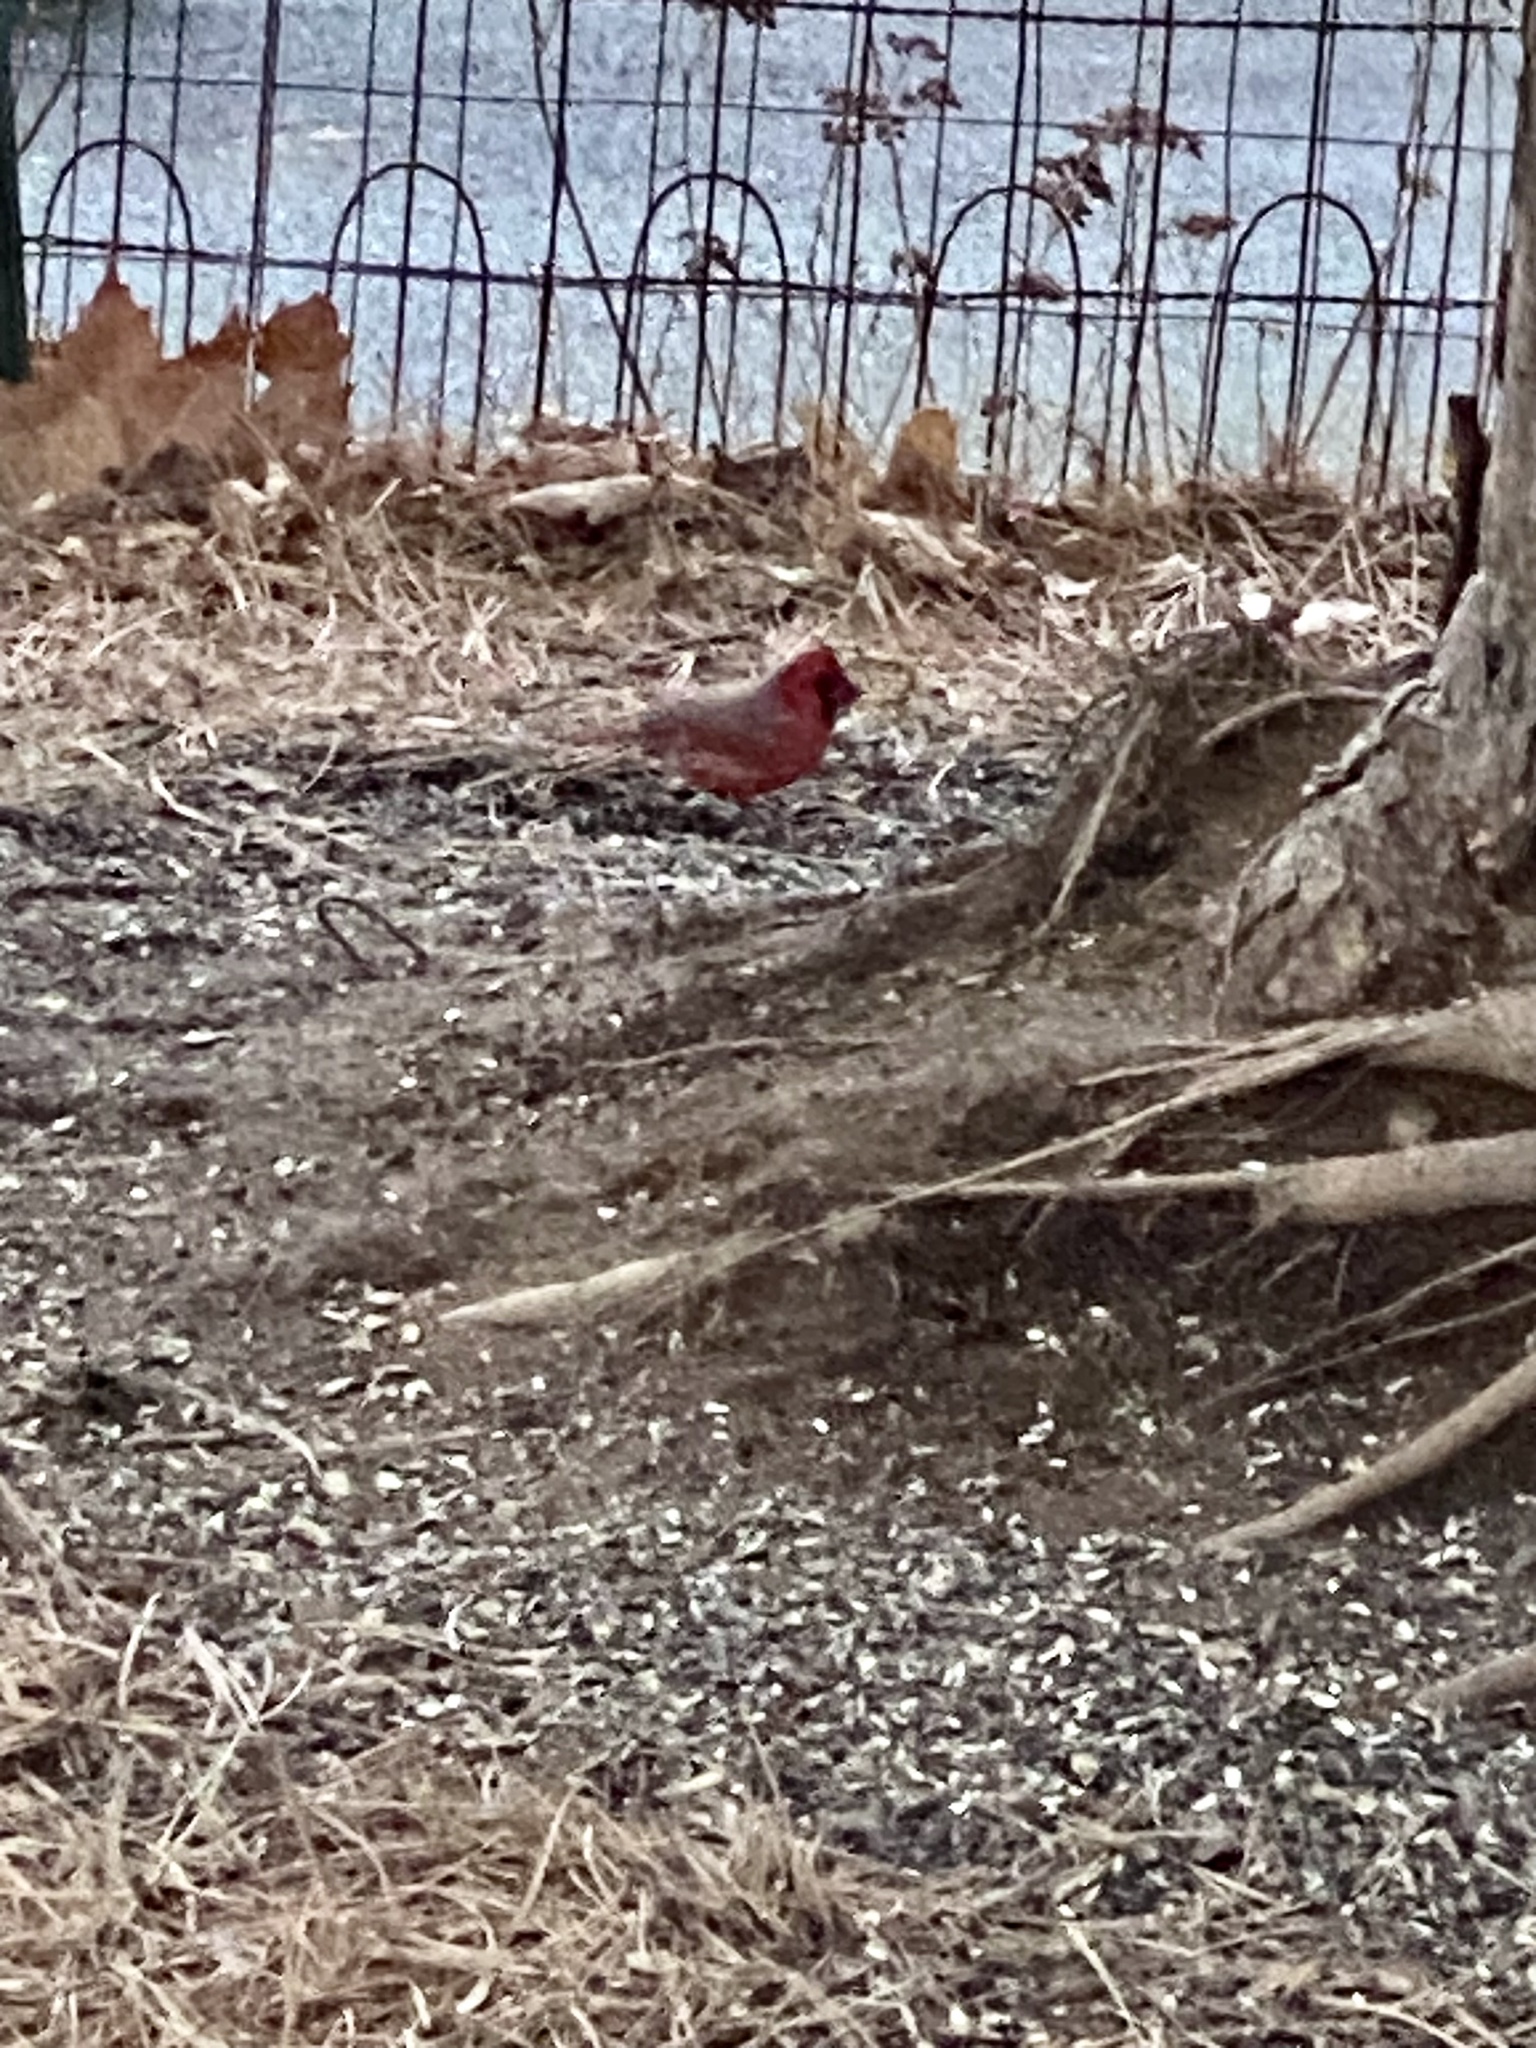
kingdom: Animalia
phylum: Chordata
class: Aves
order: Passeriformes
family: Cardinalidae
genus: Cardinalis
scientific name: Cardinalis cardinalis
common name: Northern cardinal
